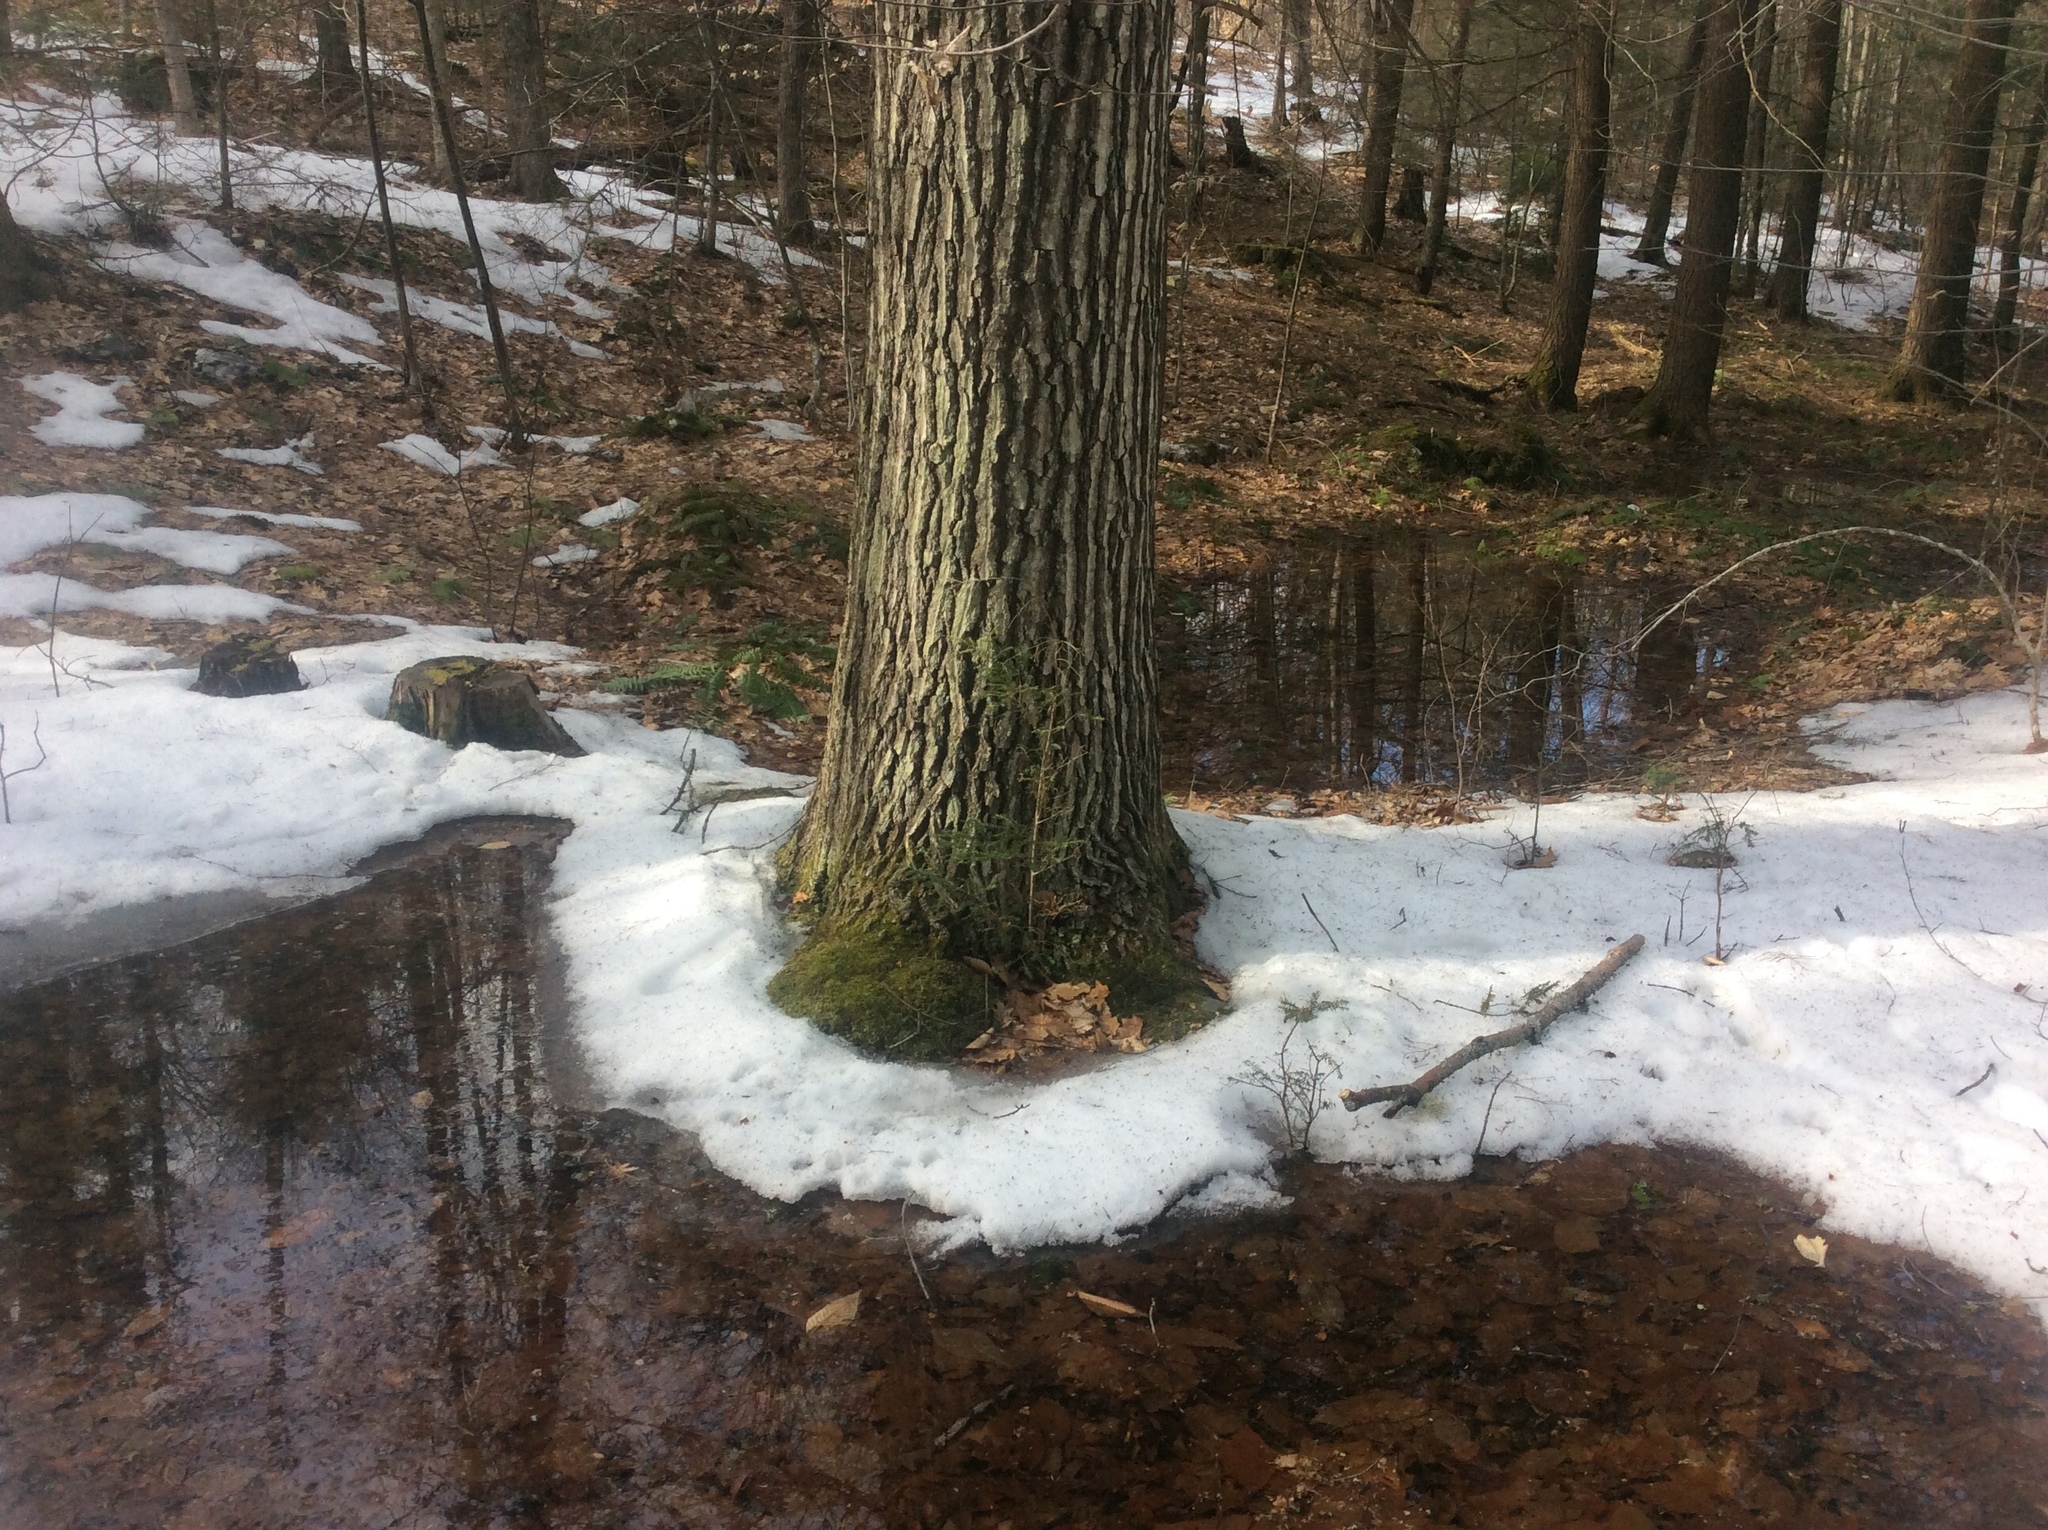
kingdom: Plantae
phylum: Tracheophyta
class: Magnoliopsida
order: Fagales
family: Fagaceae
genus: Quercus
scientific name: Quercus rubra
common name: Red oak
